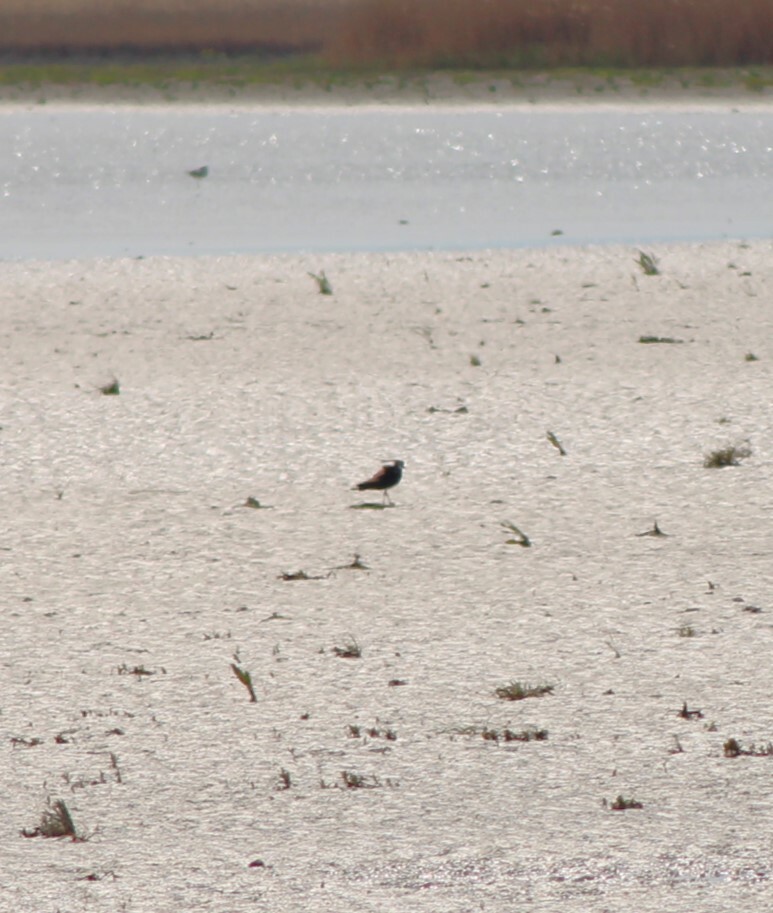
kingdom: Animalia
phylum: Chordata
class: Aves
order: Charadriiformes
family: Charadriidae
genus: Vanellus
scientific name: Vanellus vanellus
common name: Northern lapwing
